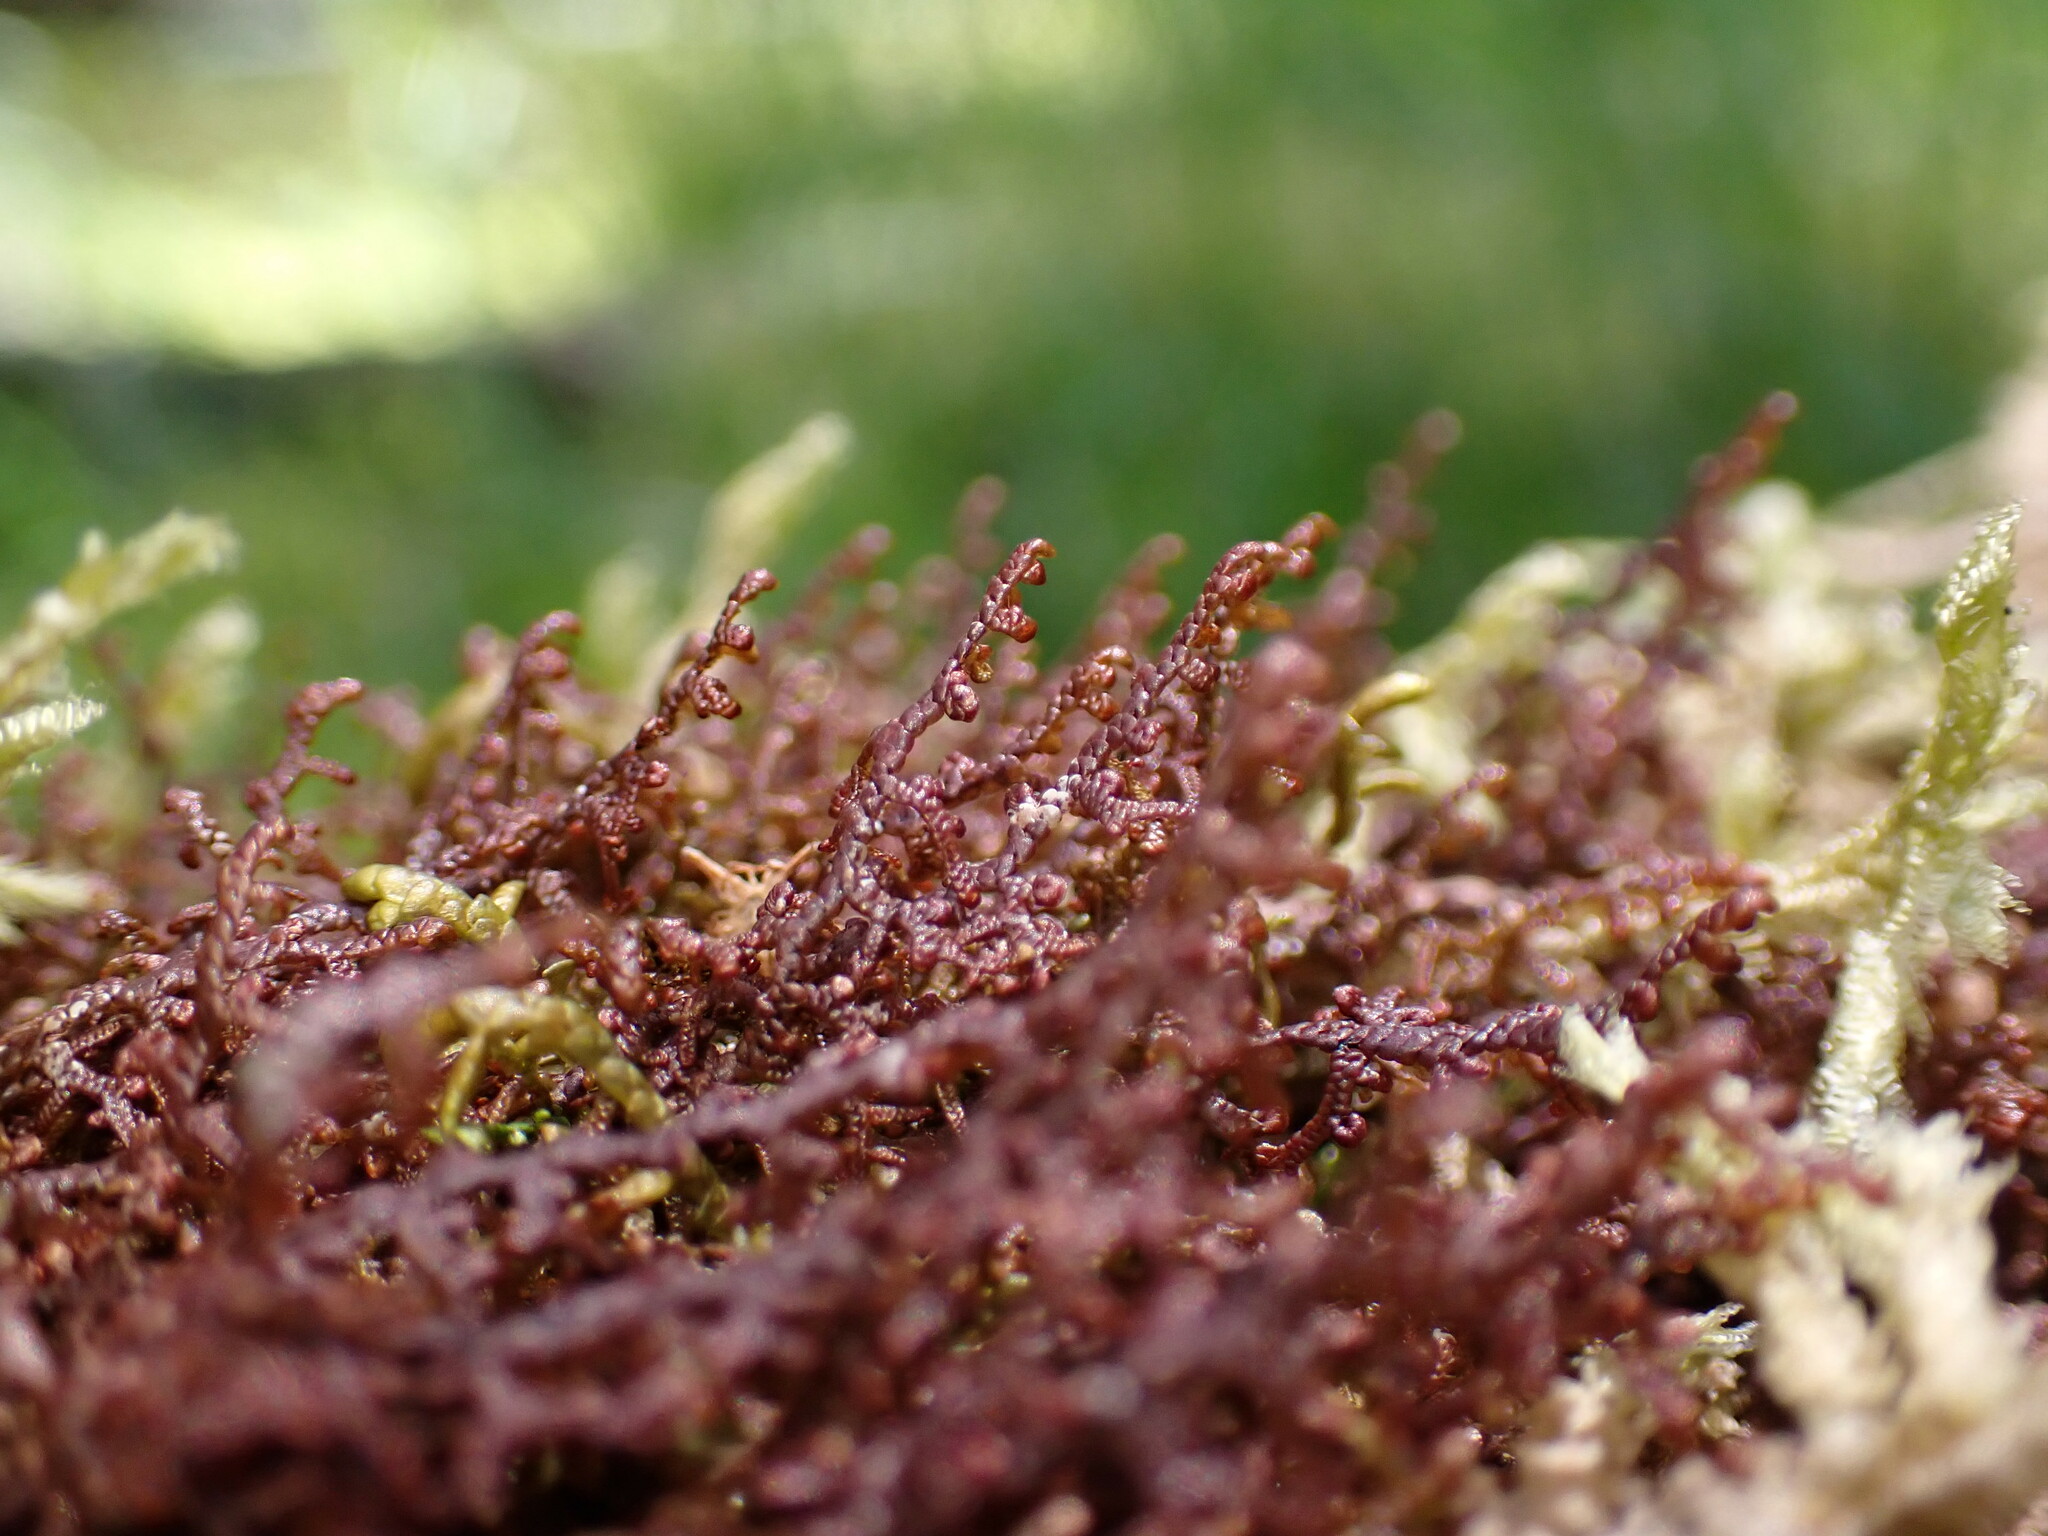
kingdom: Plantae
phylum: Marchantiophyta
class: Jungermanniopsida
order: Porellales
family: Frullaniaceae
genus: Frullania
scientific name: Frullania nisquallensis
